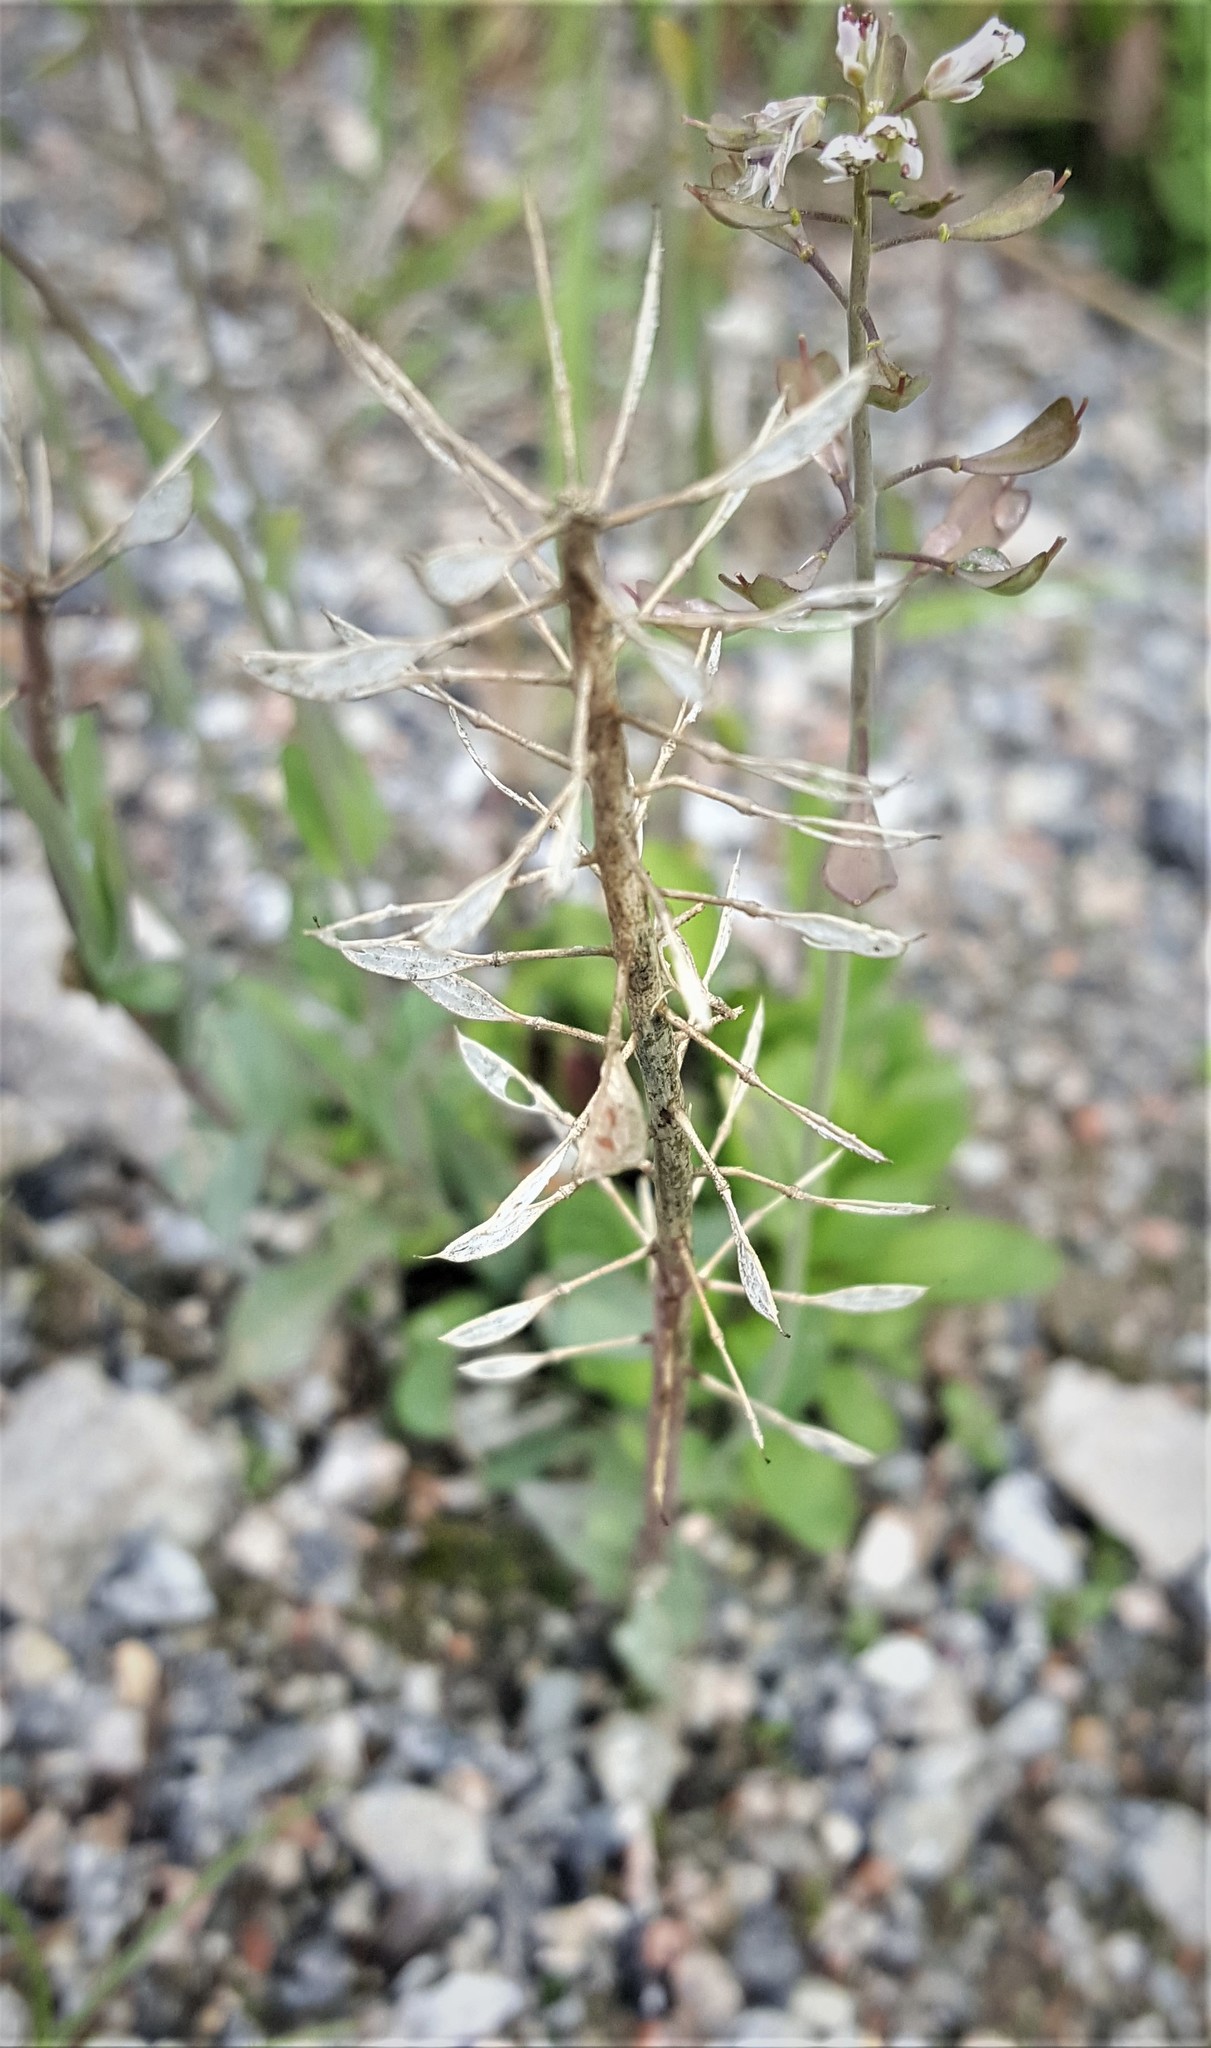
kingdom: Plantae
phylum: Tracheophyta
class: Magnoliopsida
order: Brassicales
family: Brassicaceae
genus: Capsella
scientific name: Capsella bursa-pastoris
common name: Shepherd's purse
